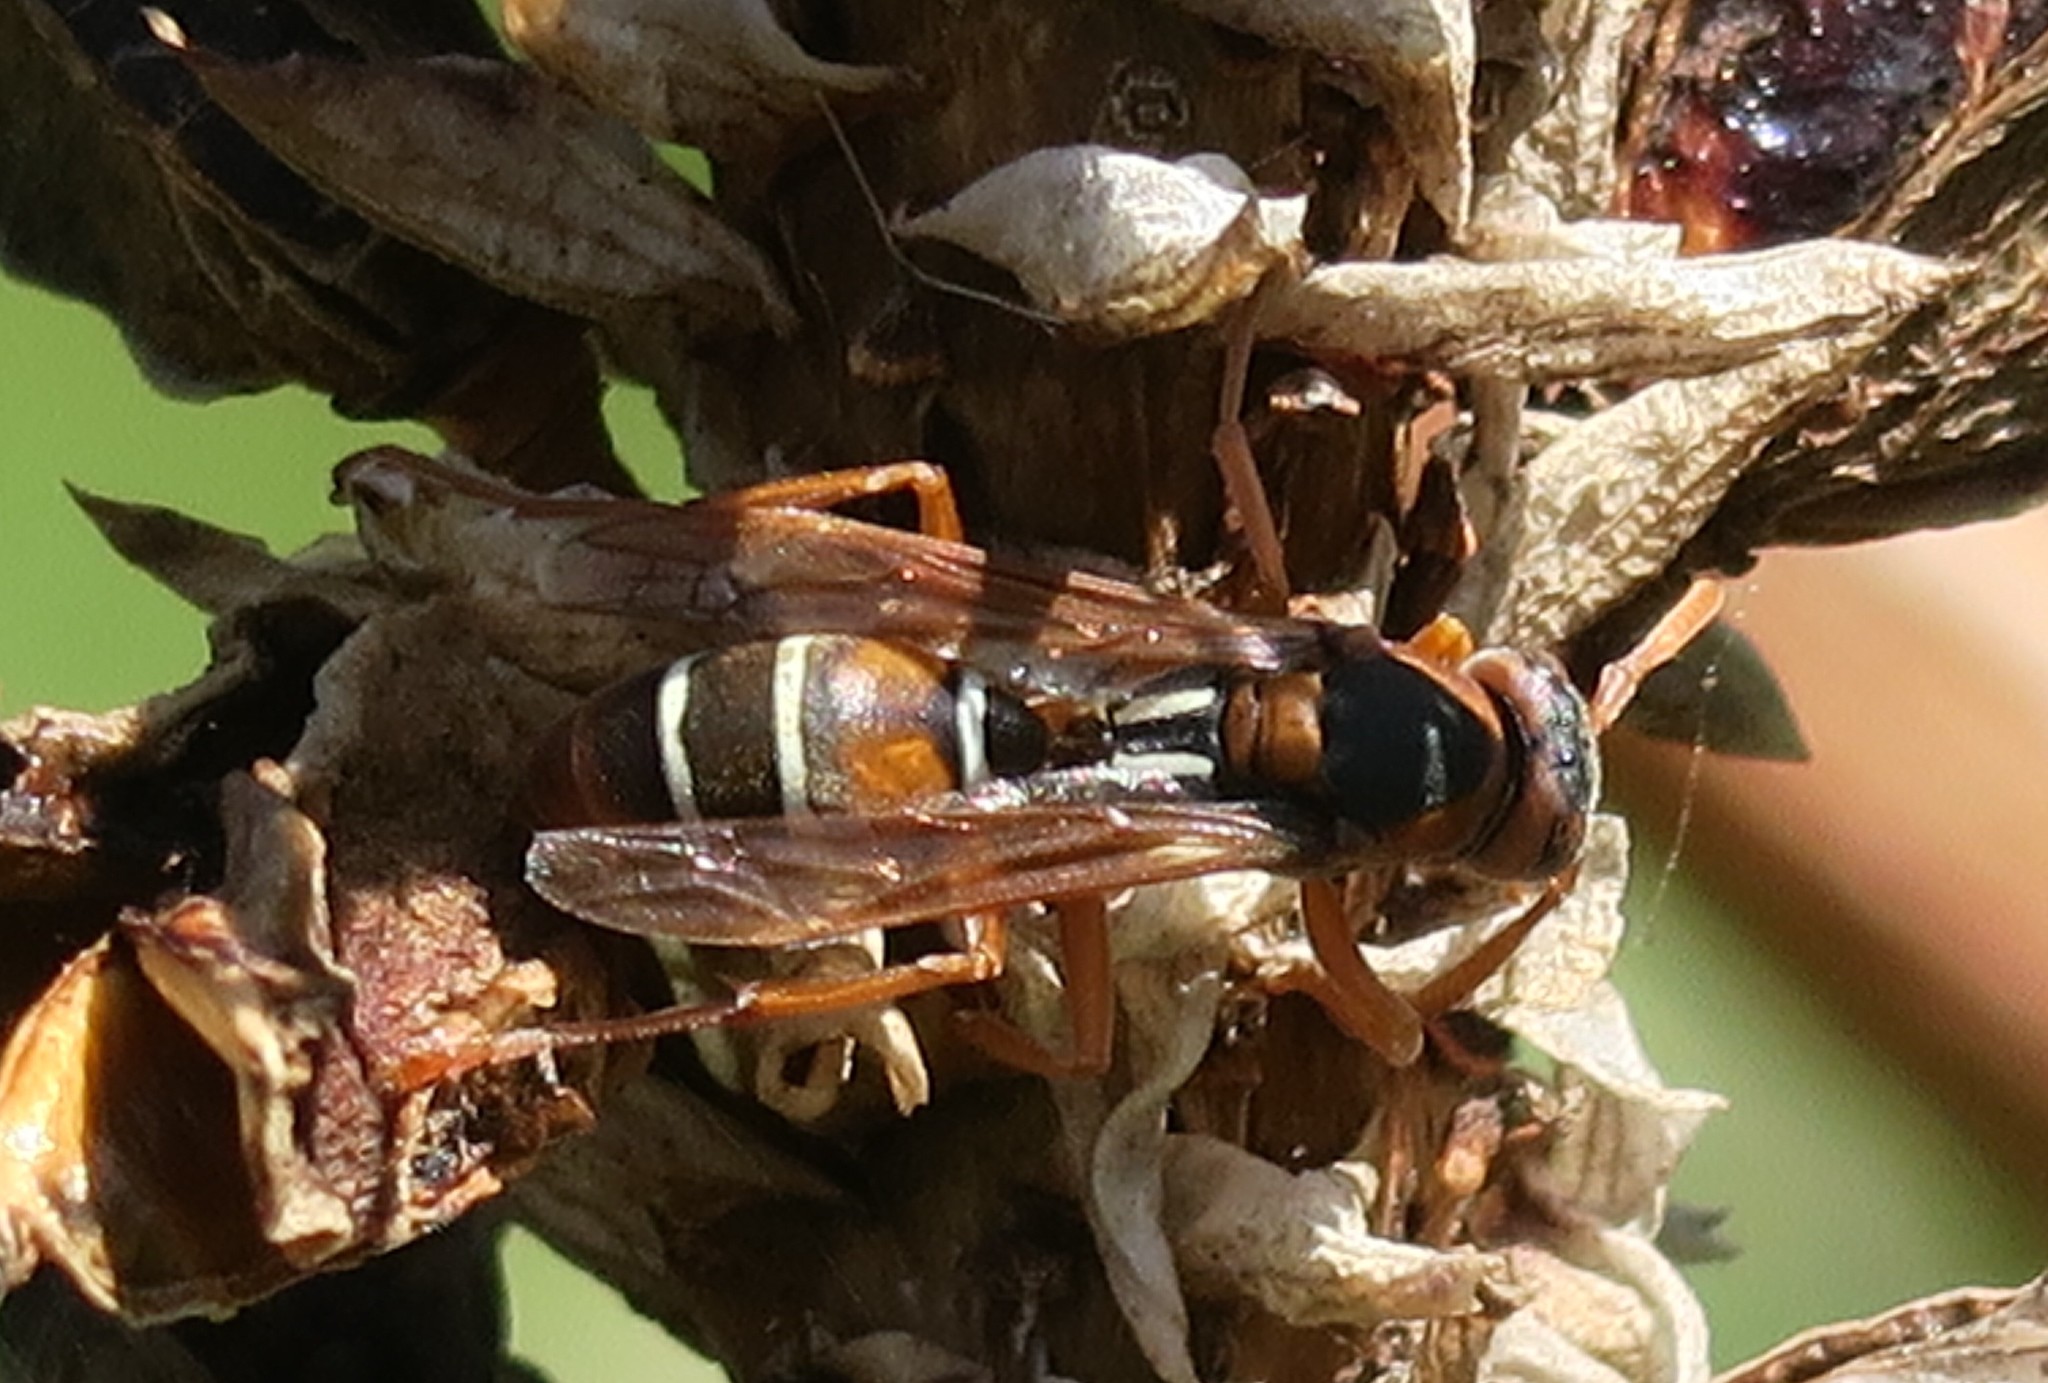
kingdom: Animalia
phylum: Arthropoda
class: Insecta
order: Hymenoptera
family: Eumenidae
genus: Polistes
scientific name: Polistes marginalis
